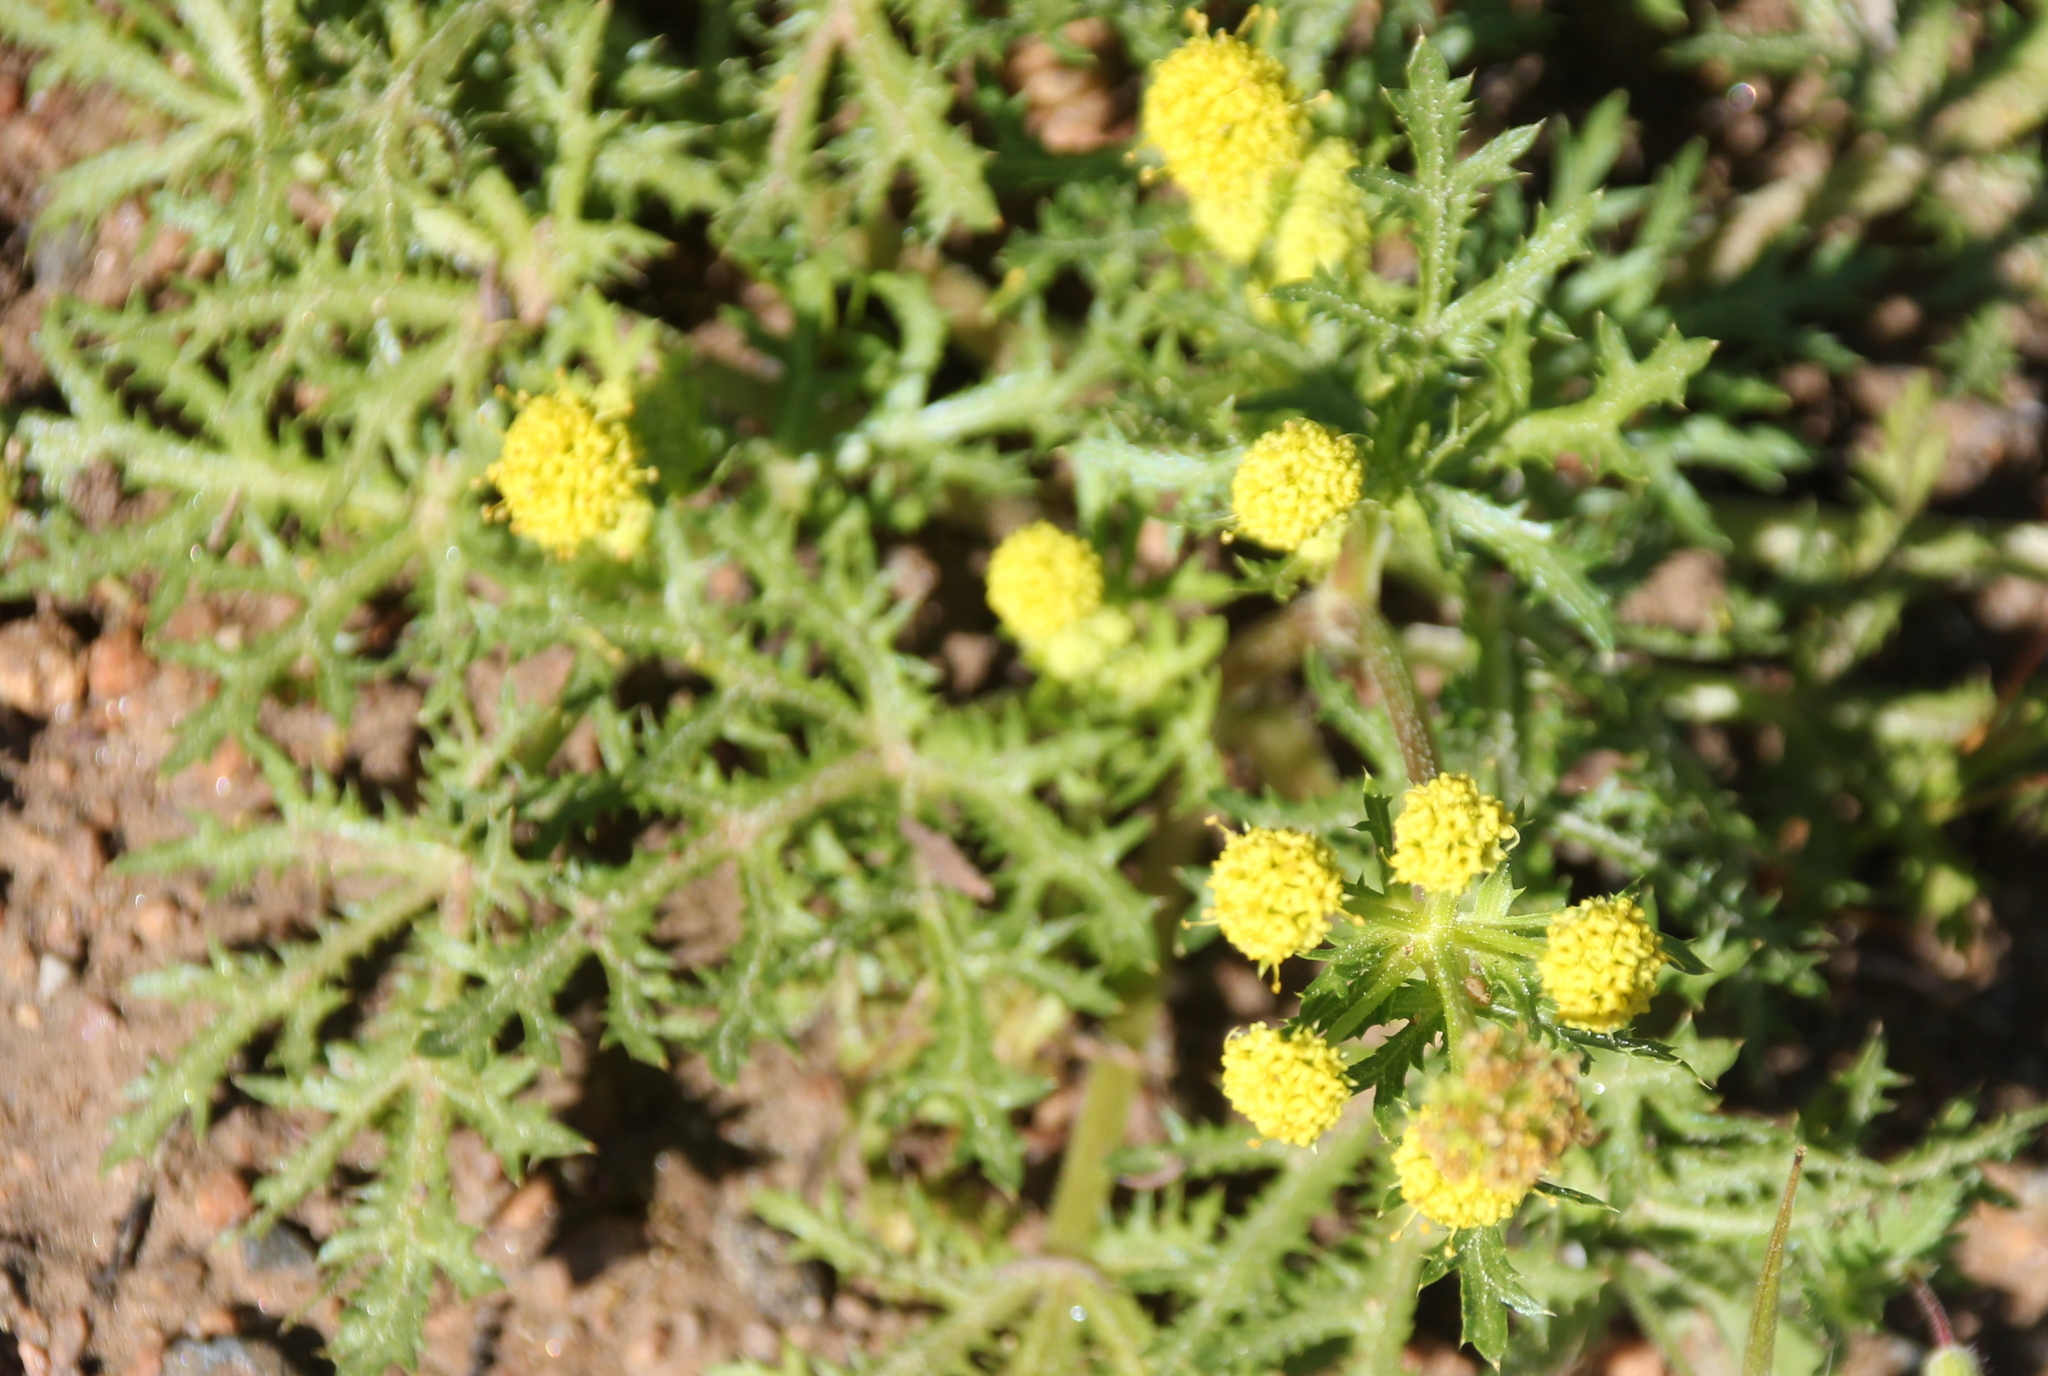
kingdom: Plantae
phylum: Tracheophyta
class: Magnoliopsida
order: Apiales
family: Apiaceae
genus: Sanicula
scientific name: Sanicula arguta
